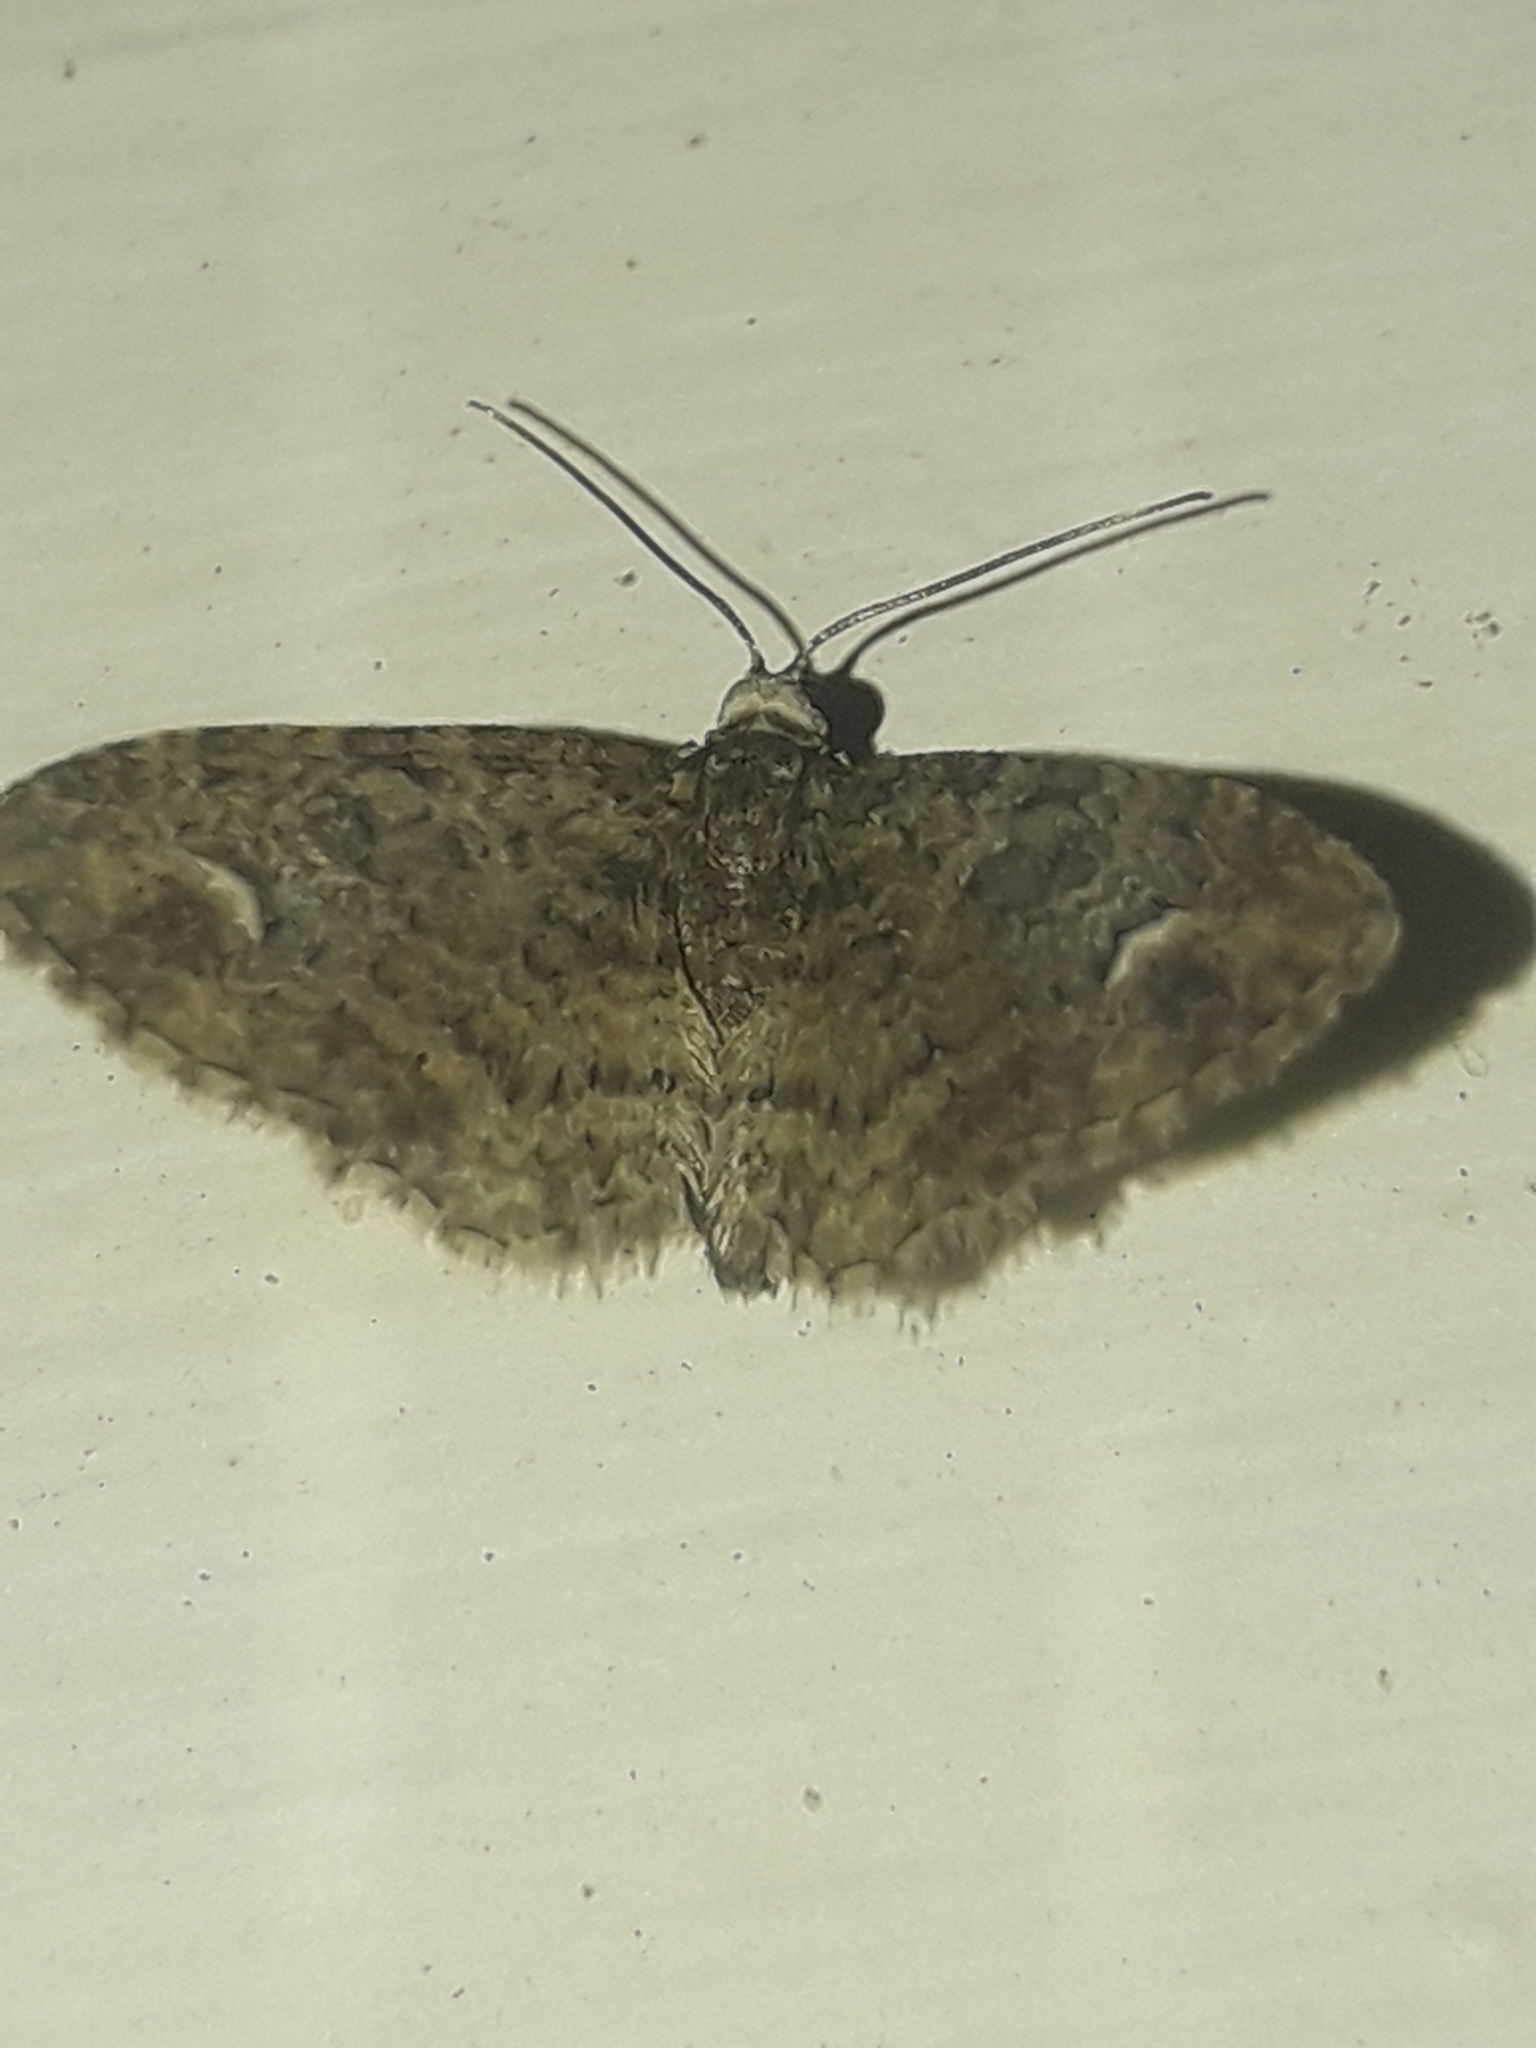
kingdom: Animalia
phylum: Arthropoda
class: Insecta
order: Lepidoptera
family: Geometridae
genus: Pasiphilodes
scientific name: Pasiphilodes testulata
